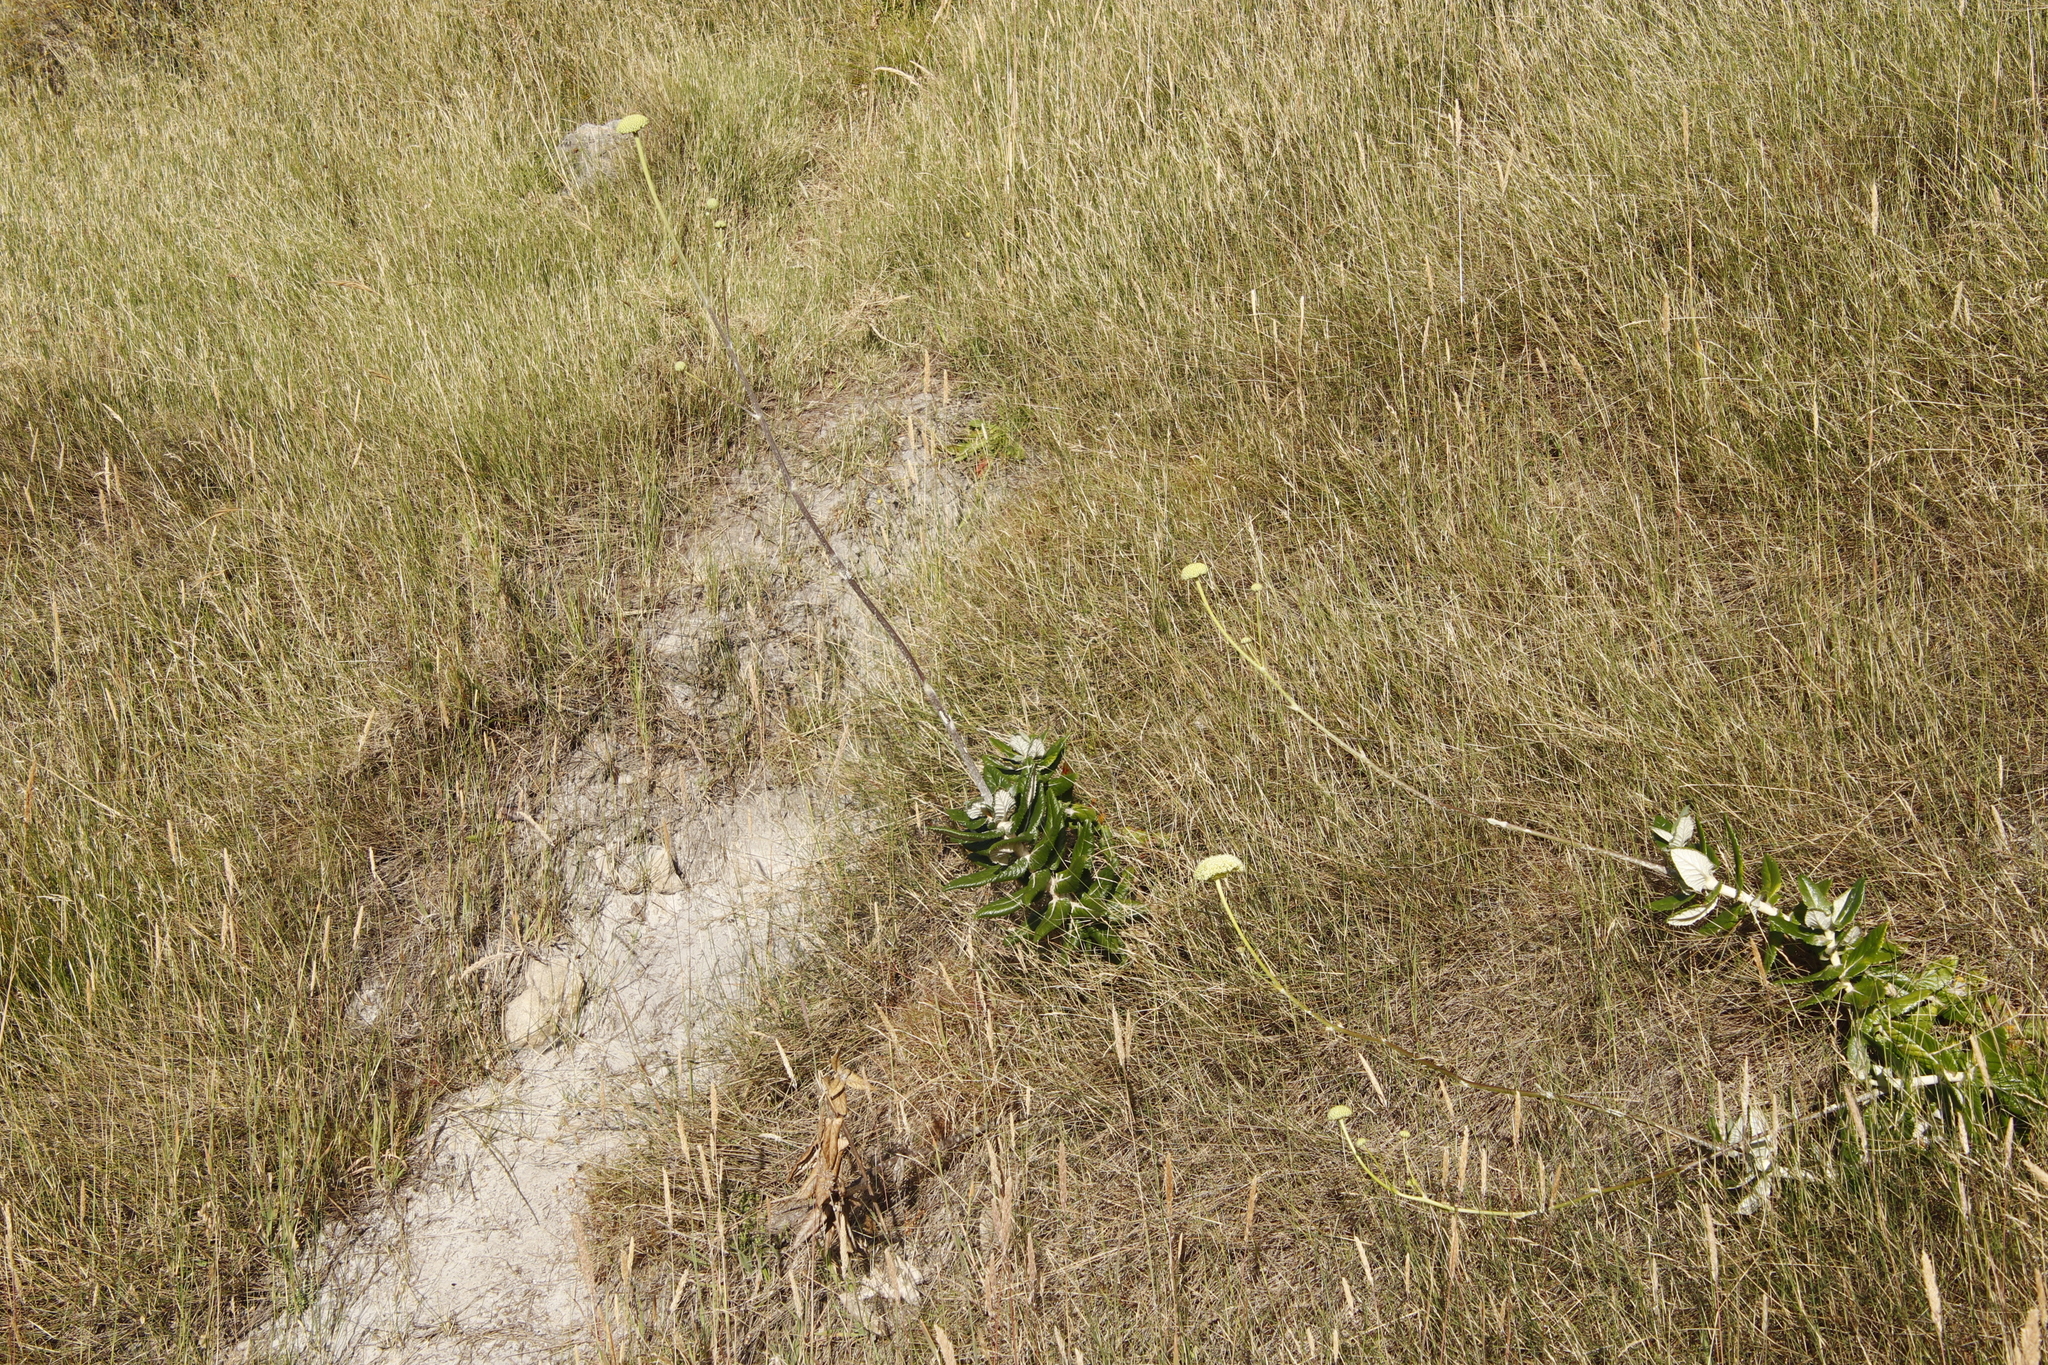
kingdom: Plantae
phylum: Tracheophyta
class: Magnoliopsida
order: Apiales
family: Apiaceae
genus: Hermas
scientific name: Hermas villosa
